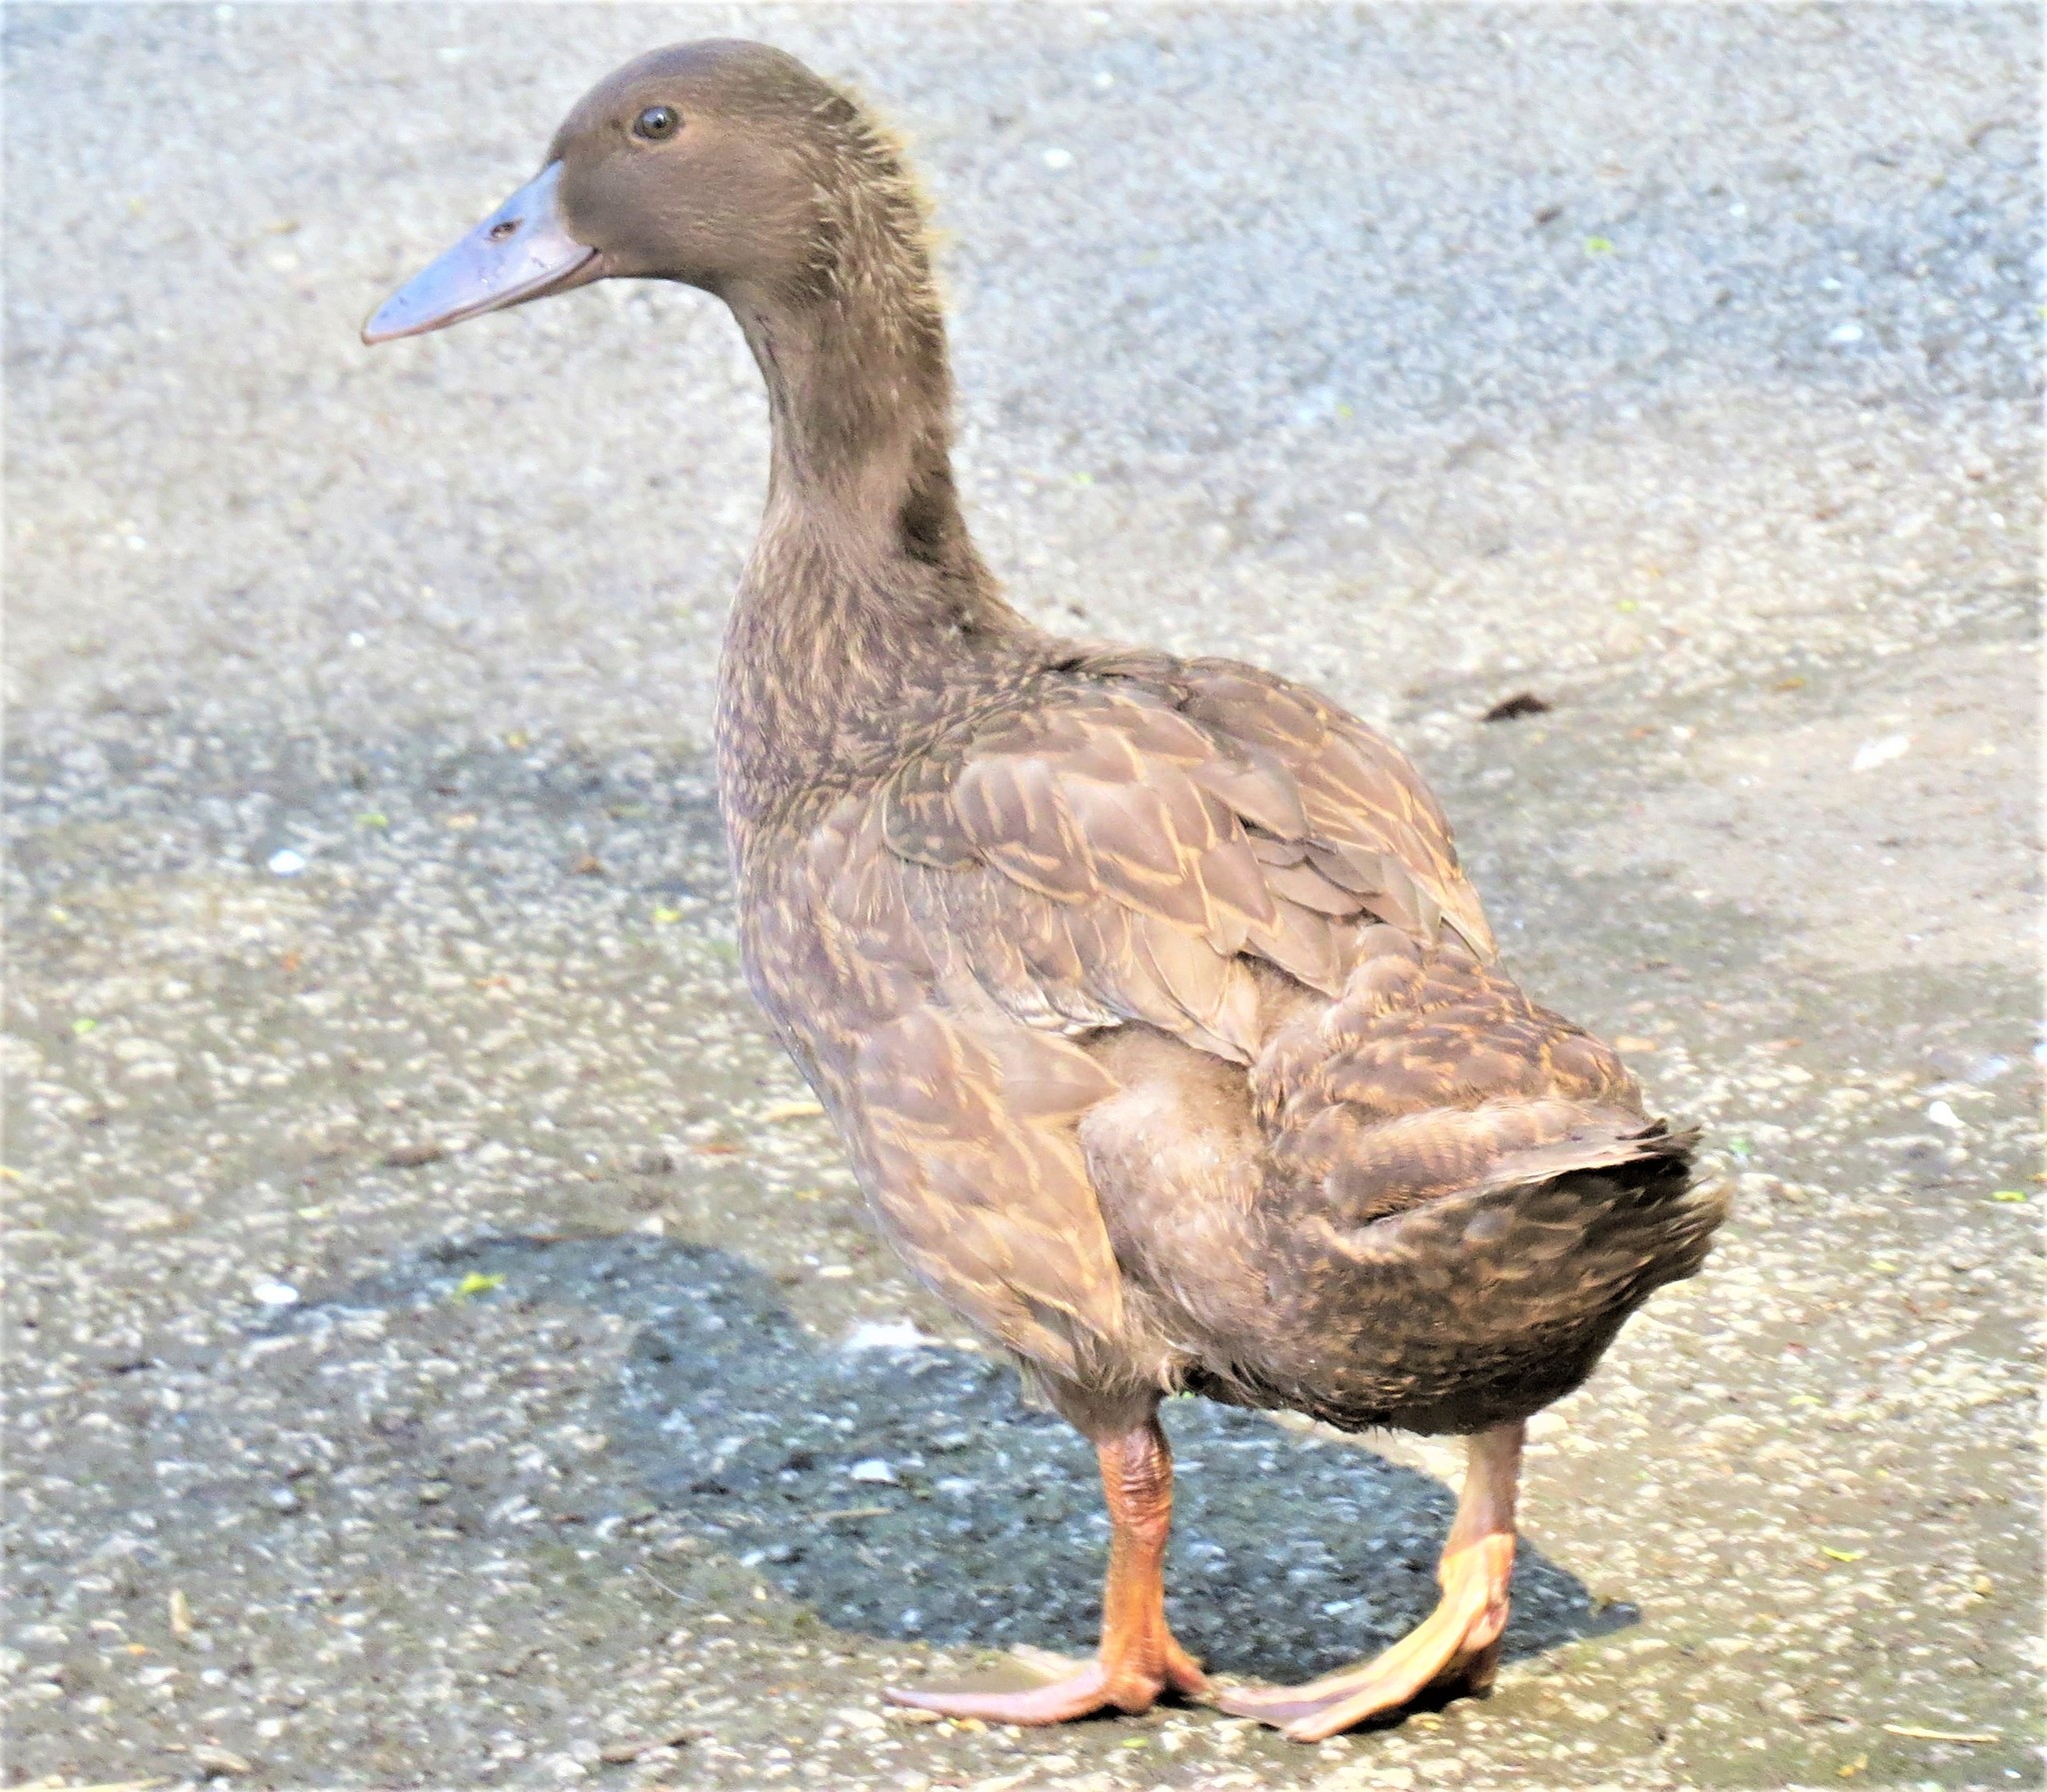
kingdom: Animalia
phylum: Chordata
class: Aves
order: Anseriformes
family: Anatidae
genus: Anas
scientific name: Anas platyrhynchos
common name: Mallard
